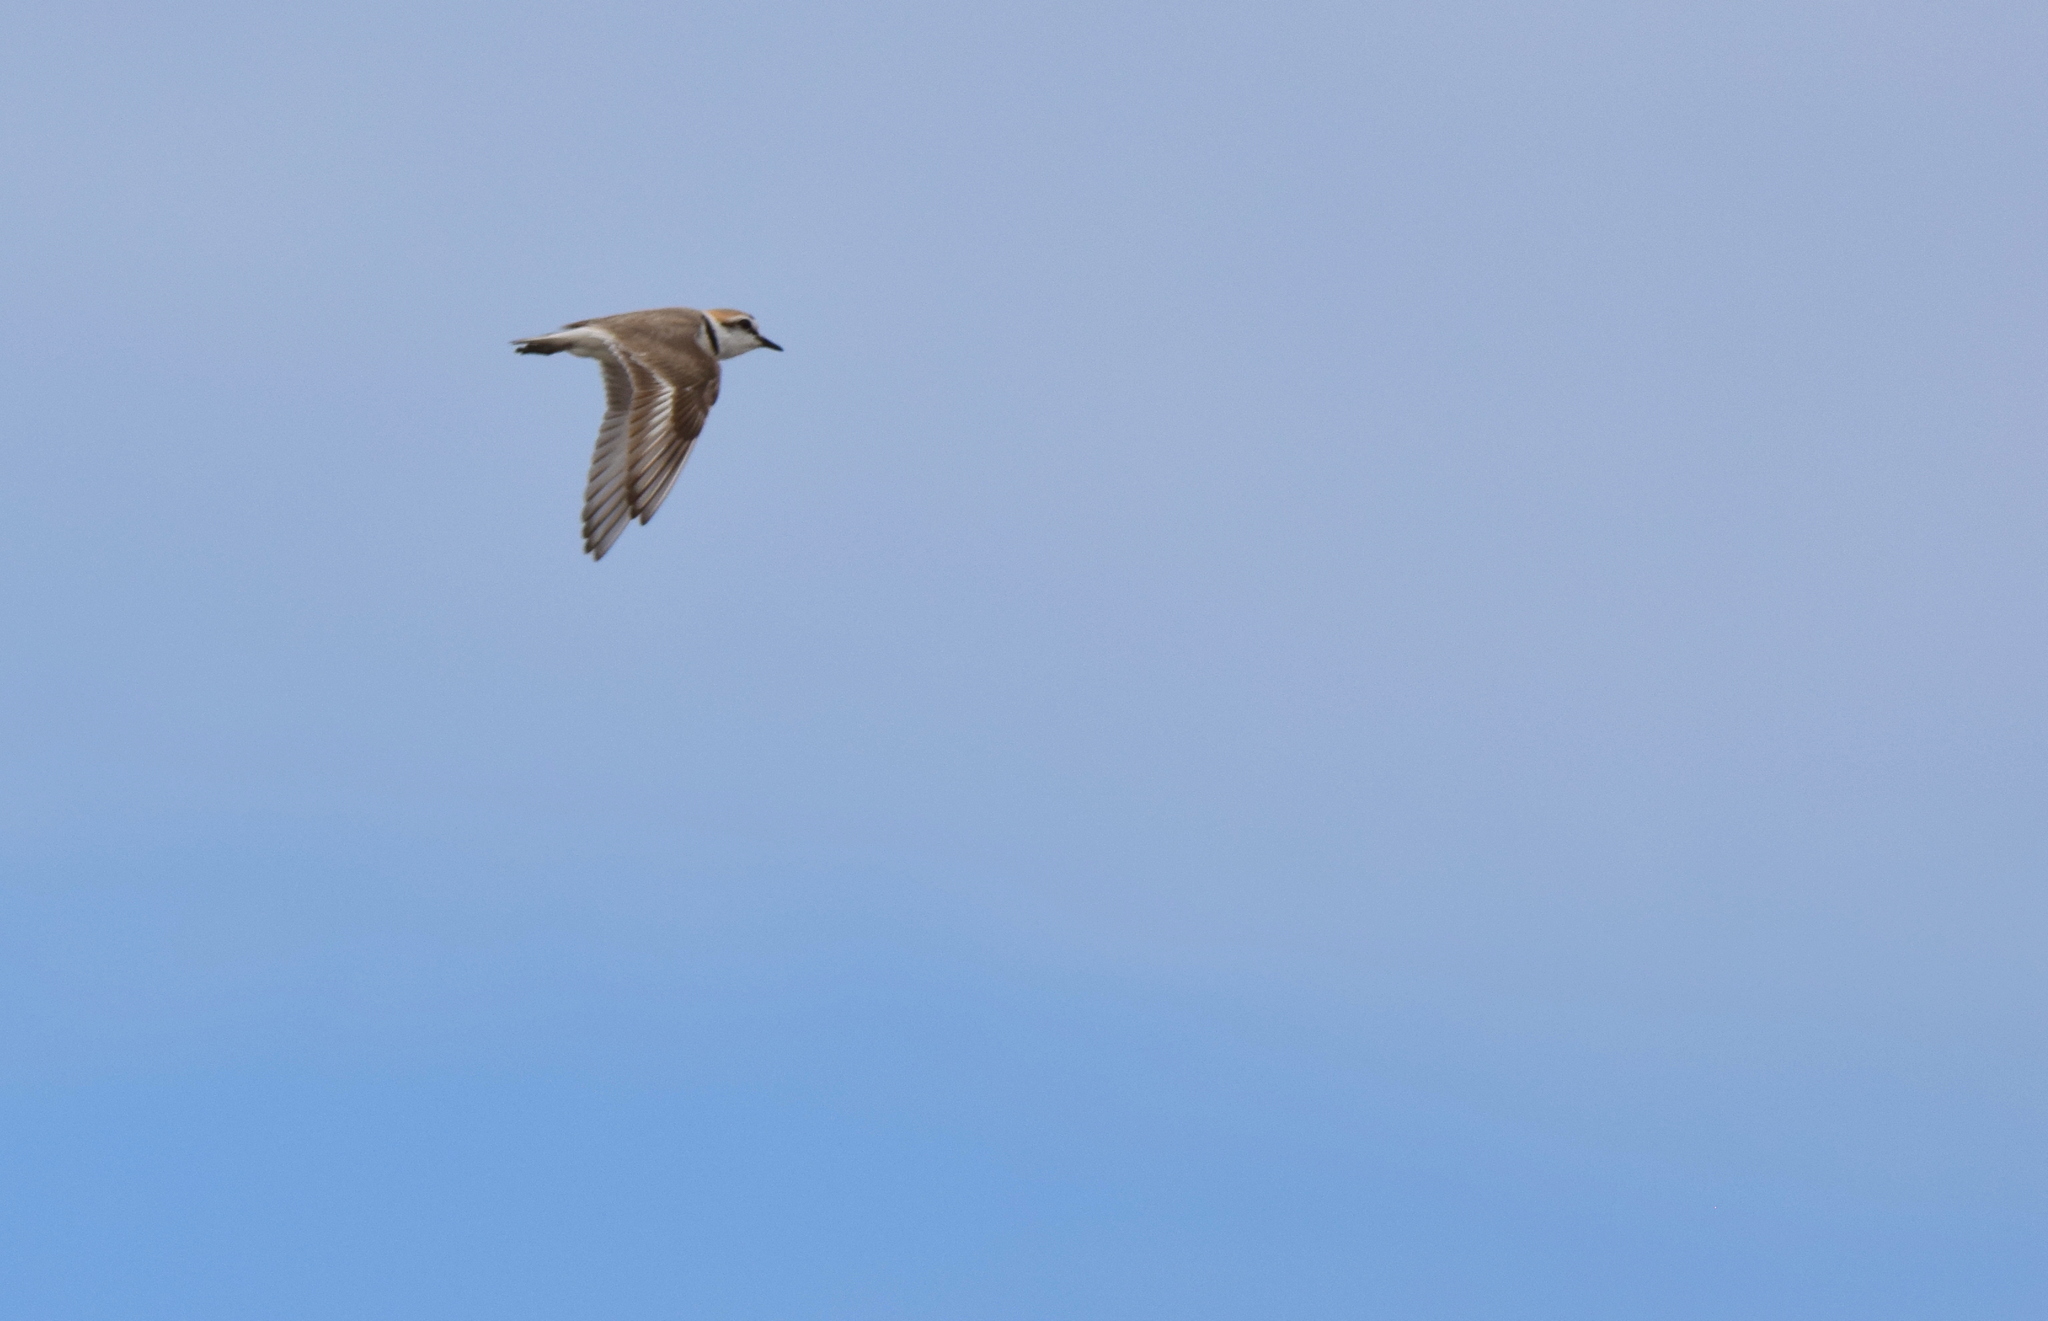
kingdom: Animalia
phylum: Chordata
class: Aves
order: Charadriiformes
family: Charadriidae
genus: Charadrius
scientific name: Charadrius alexandrinus
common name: Kentish plover
